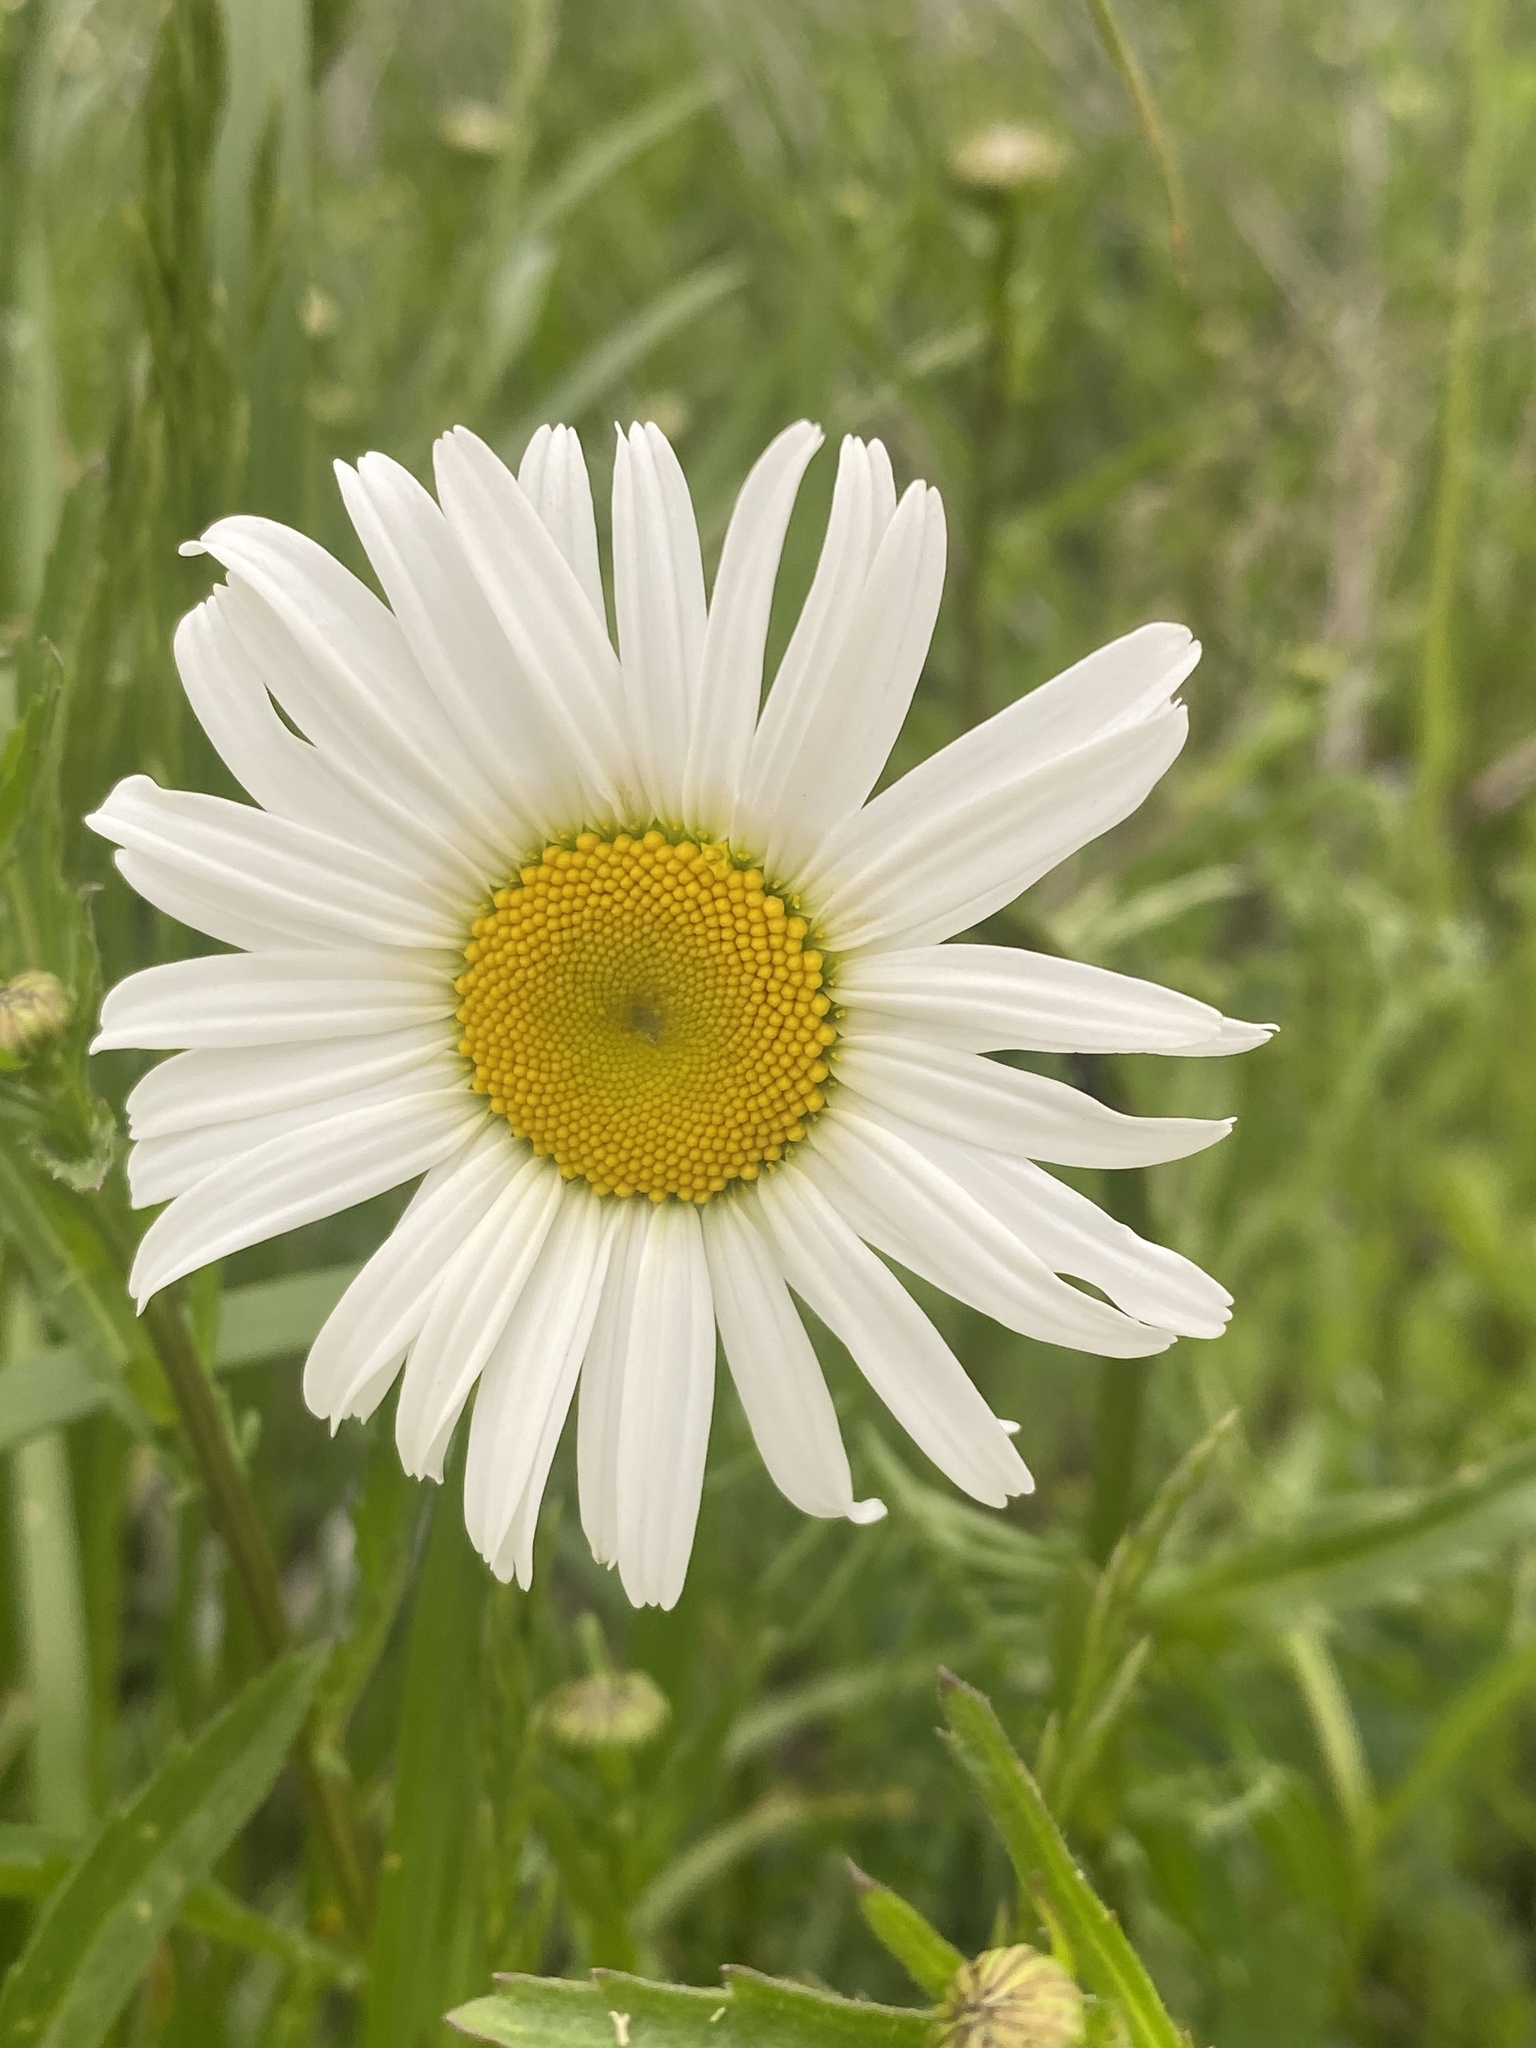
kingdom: Plantae
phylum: Tracheophyta
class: Magnoliopsida
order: Asterales
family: Asteraceae
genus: Leucanthemum
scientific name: Leucanthemum vulgare
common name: Oxeye daisy
